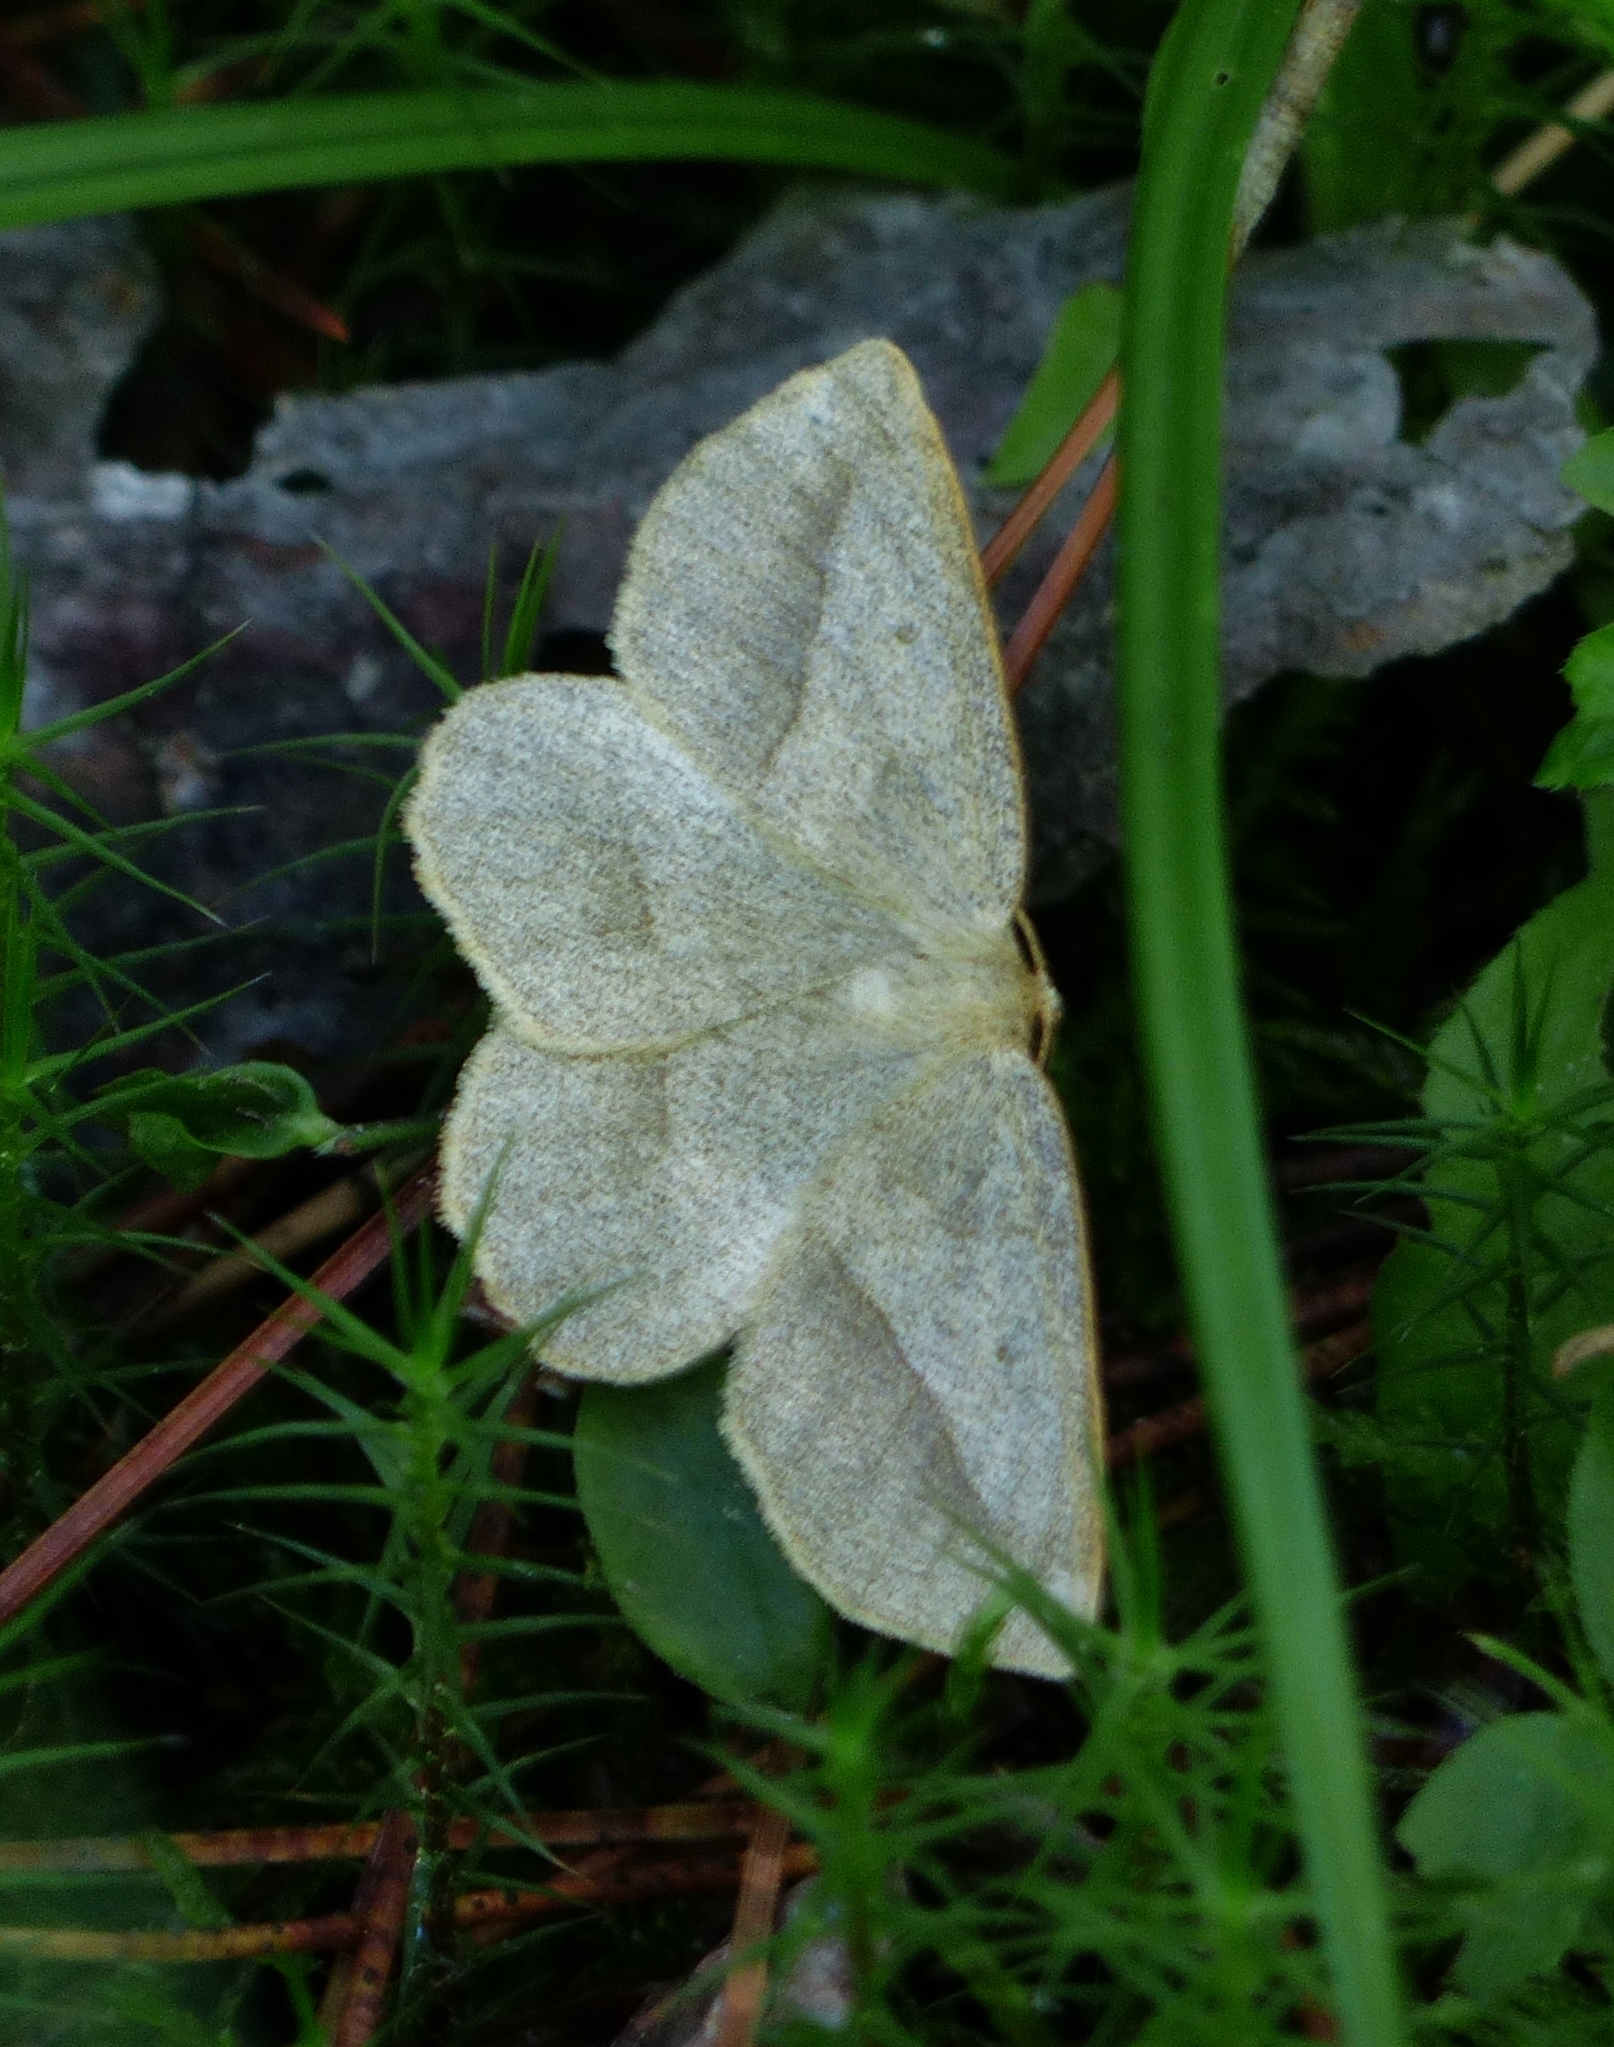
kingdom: Animalia
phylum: Arthropoda
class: Insecta
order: Lepidoptera
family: Geometridae
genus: Euchlaena
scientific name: Euchlaena irraria
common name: Least-marked euchlaena
